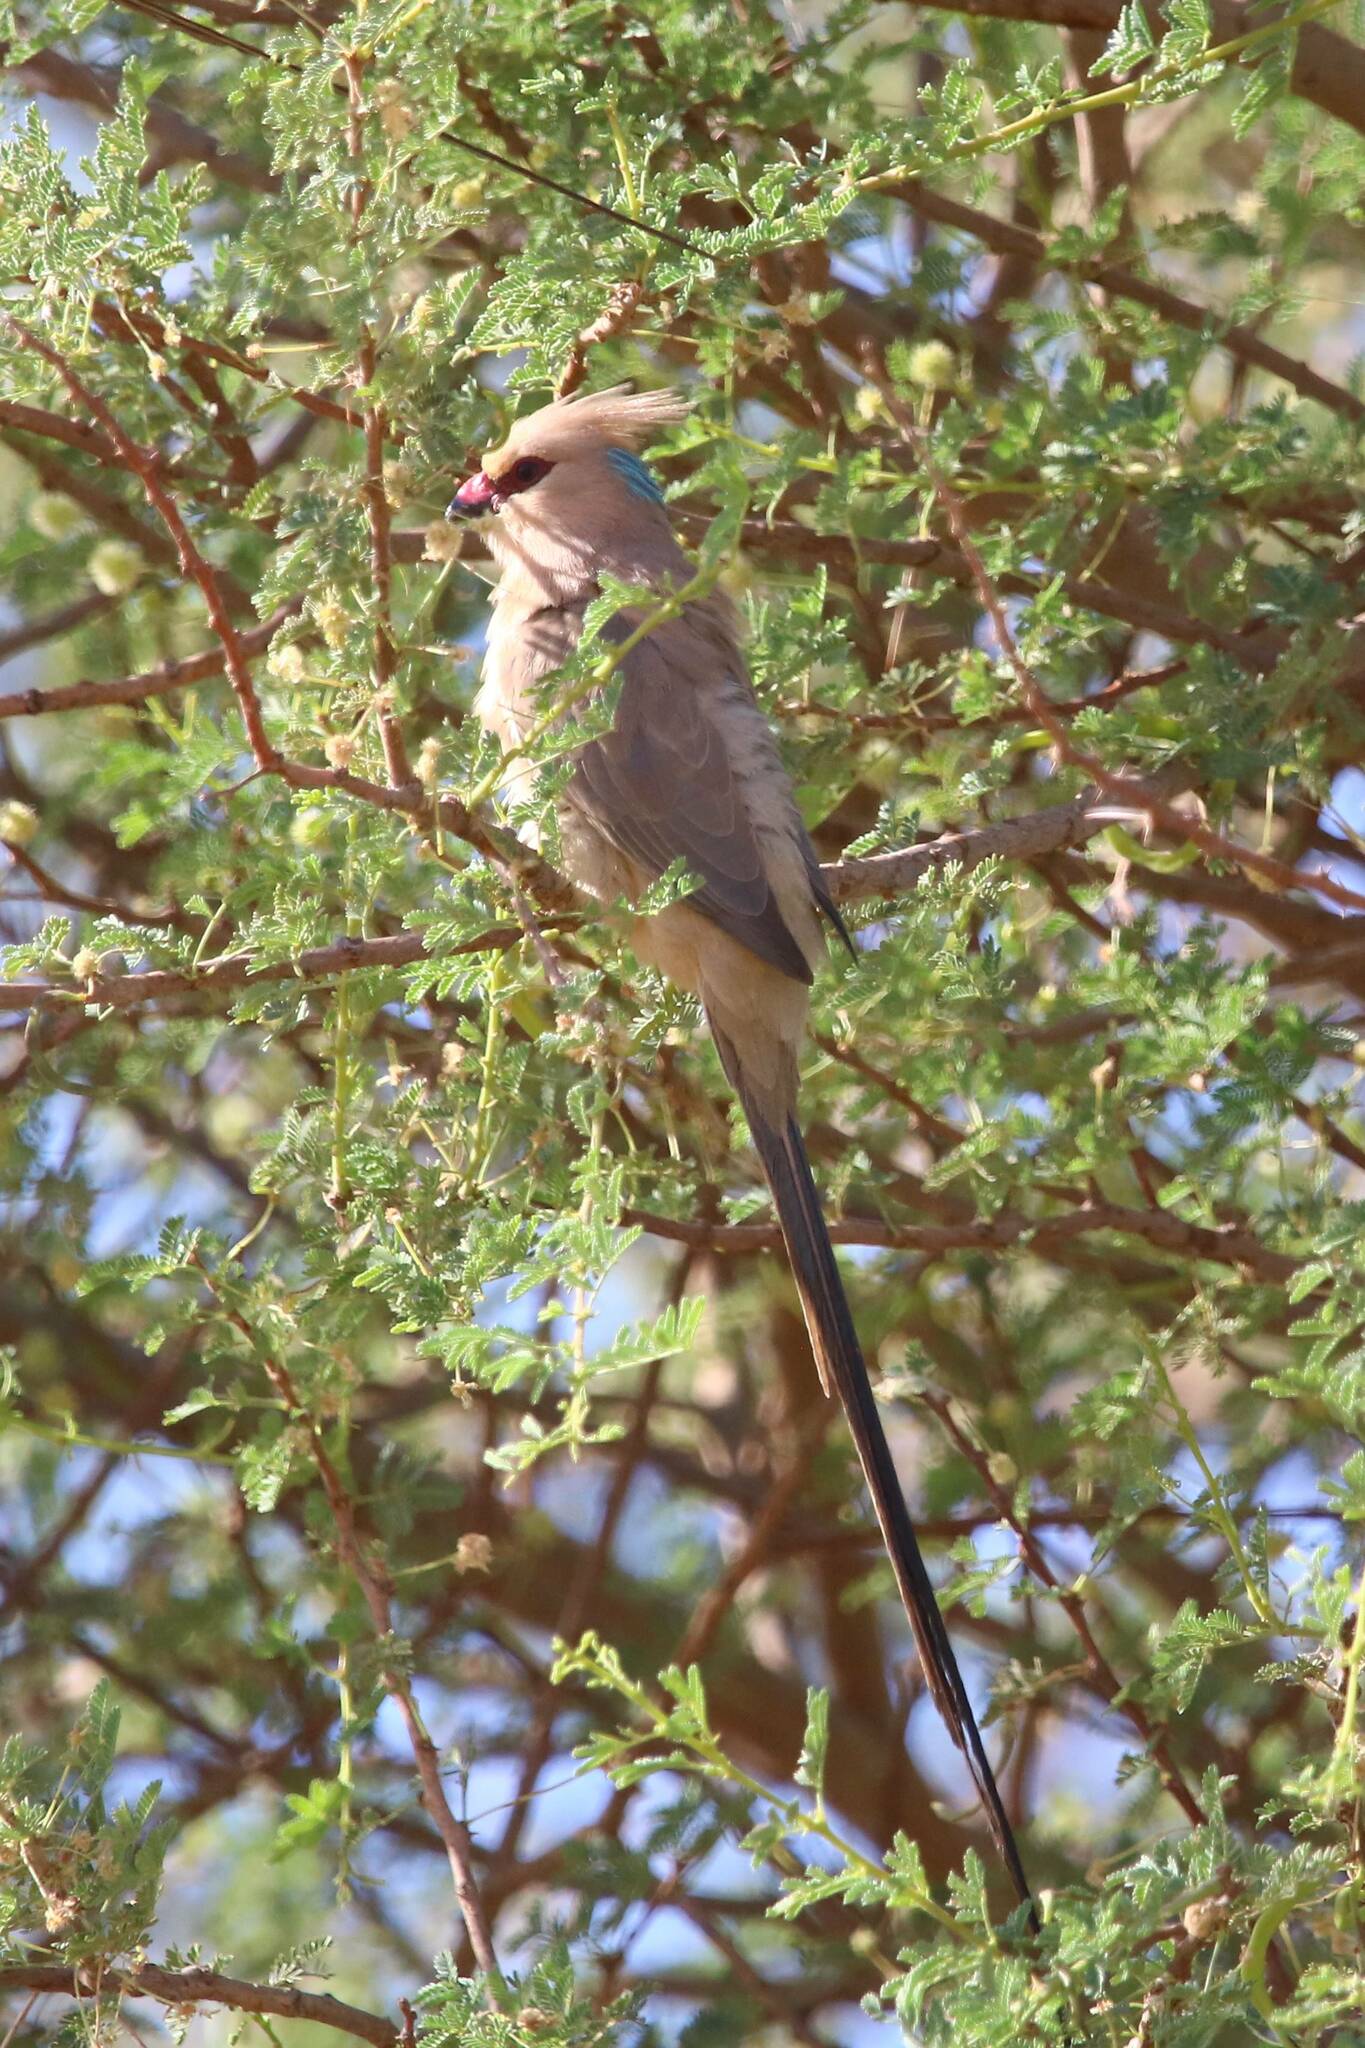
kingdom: Animalia
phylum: Chordata
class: Aves
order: Coliiformes
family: Coliidae
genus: Urocolius
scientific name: Urocolius macrourus
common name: Blue-naped mousebird
